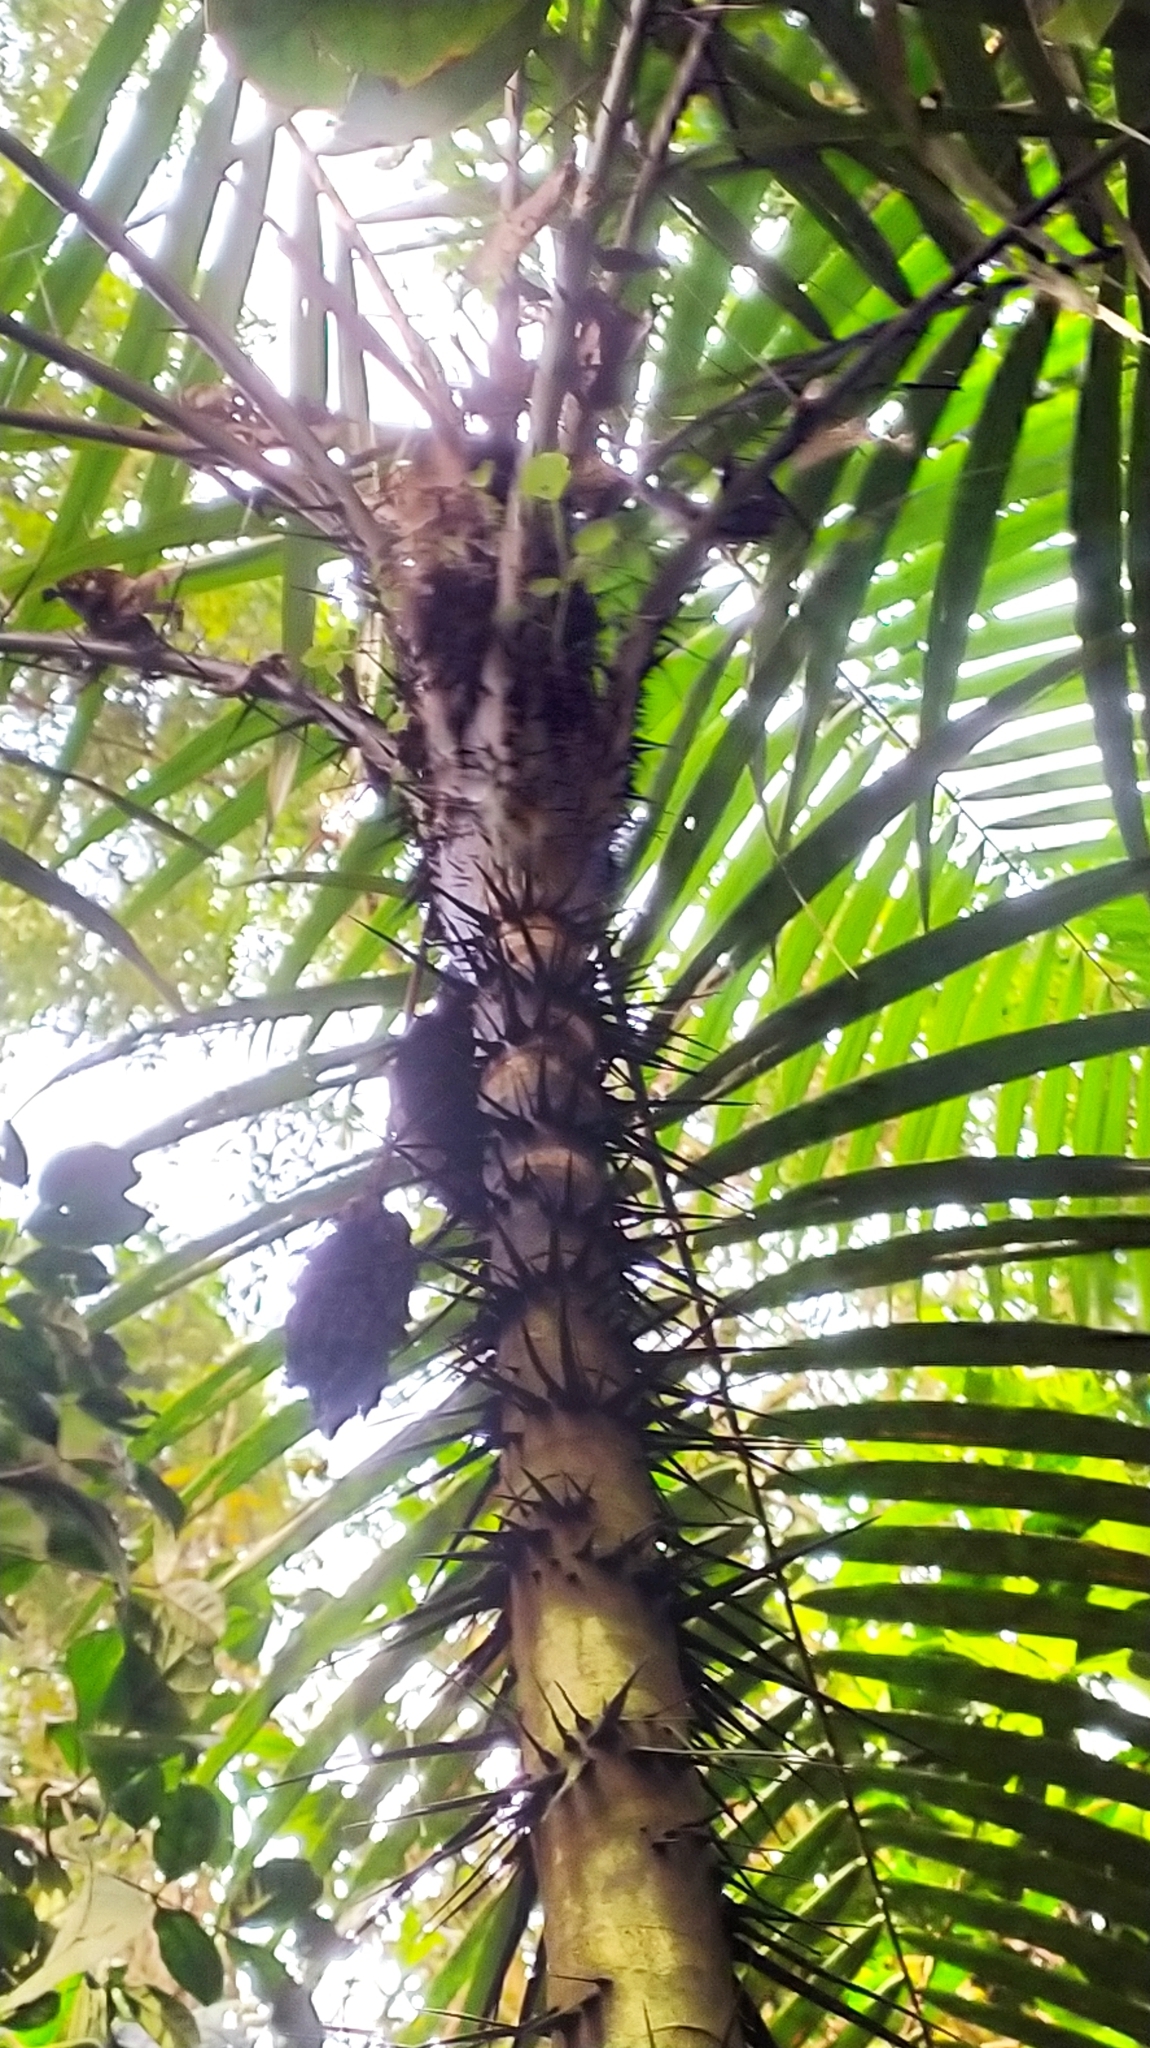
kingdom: Plantae
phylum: Tracheophyta
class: Liliopsida
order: Arecales
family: Arecaceae
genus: Astrocaryum
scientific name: Astrocaryum aculeatum
